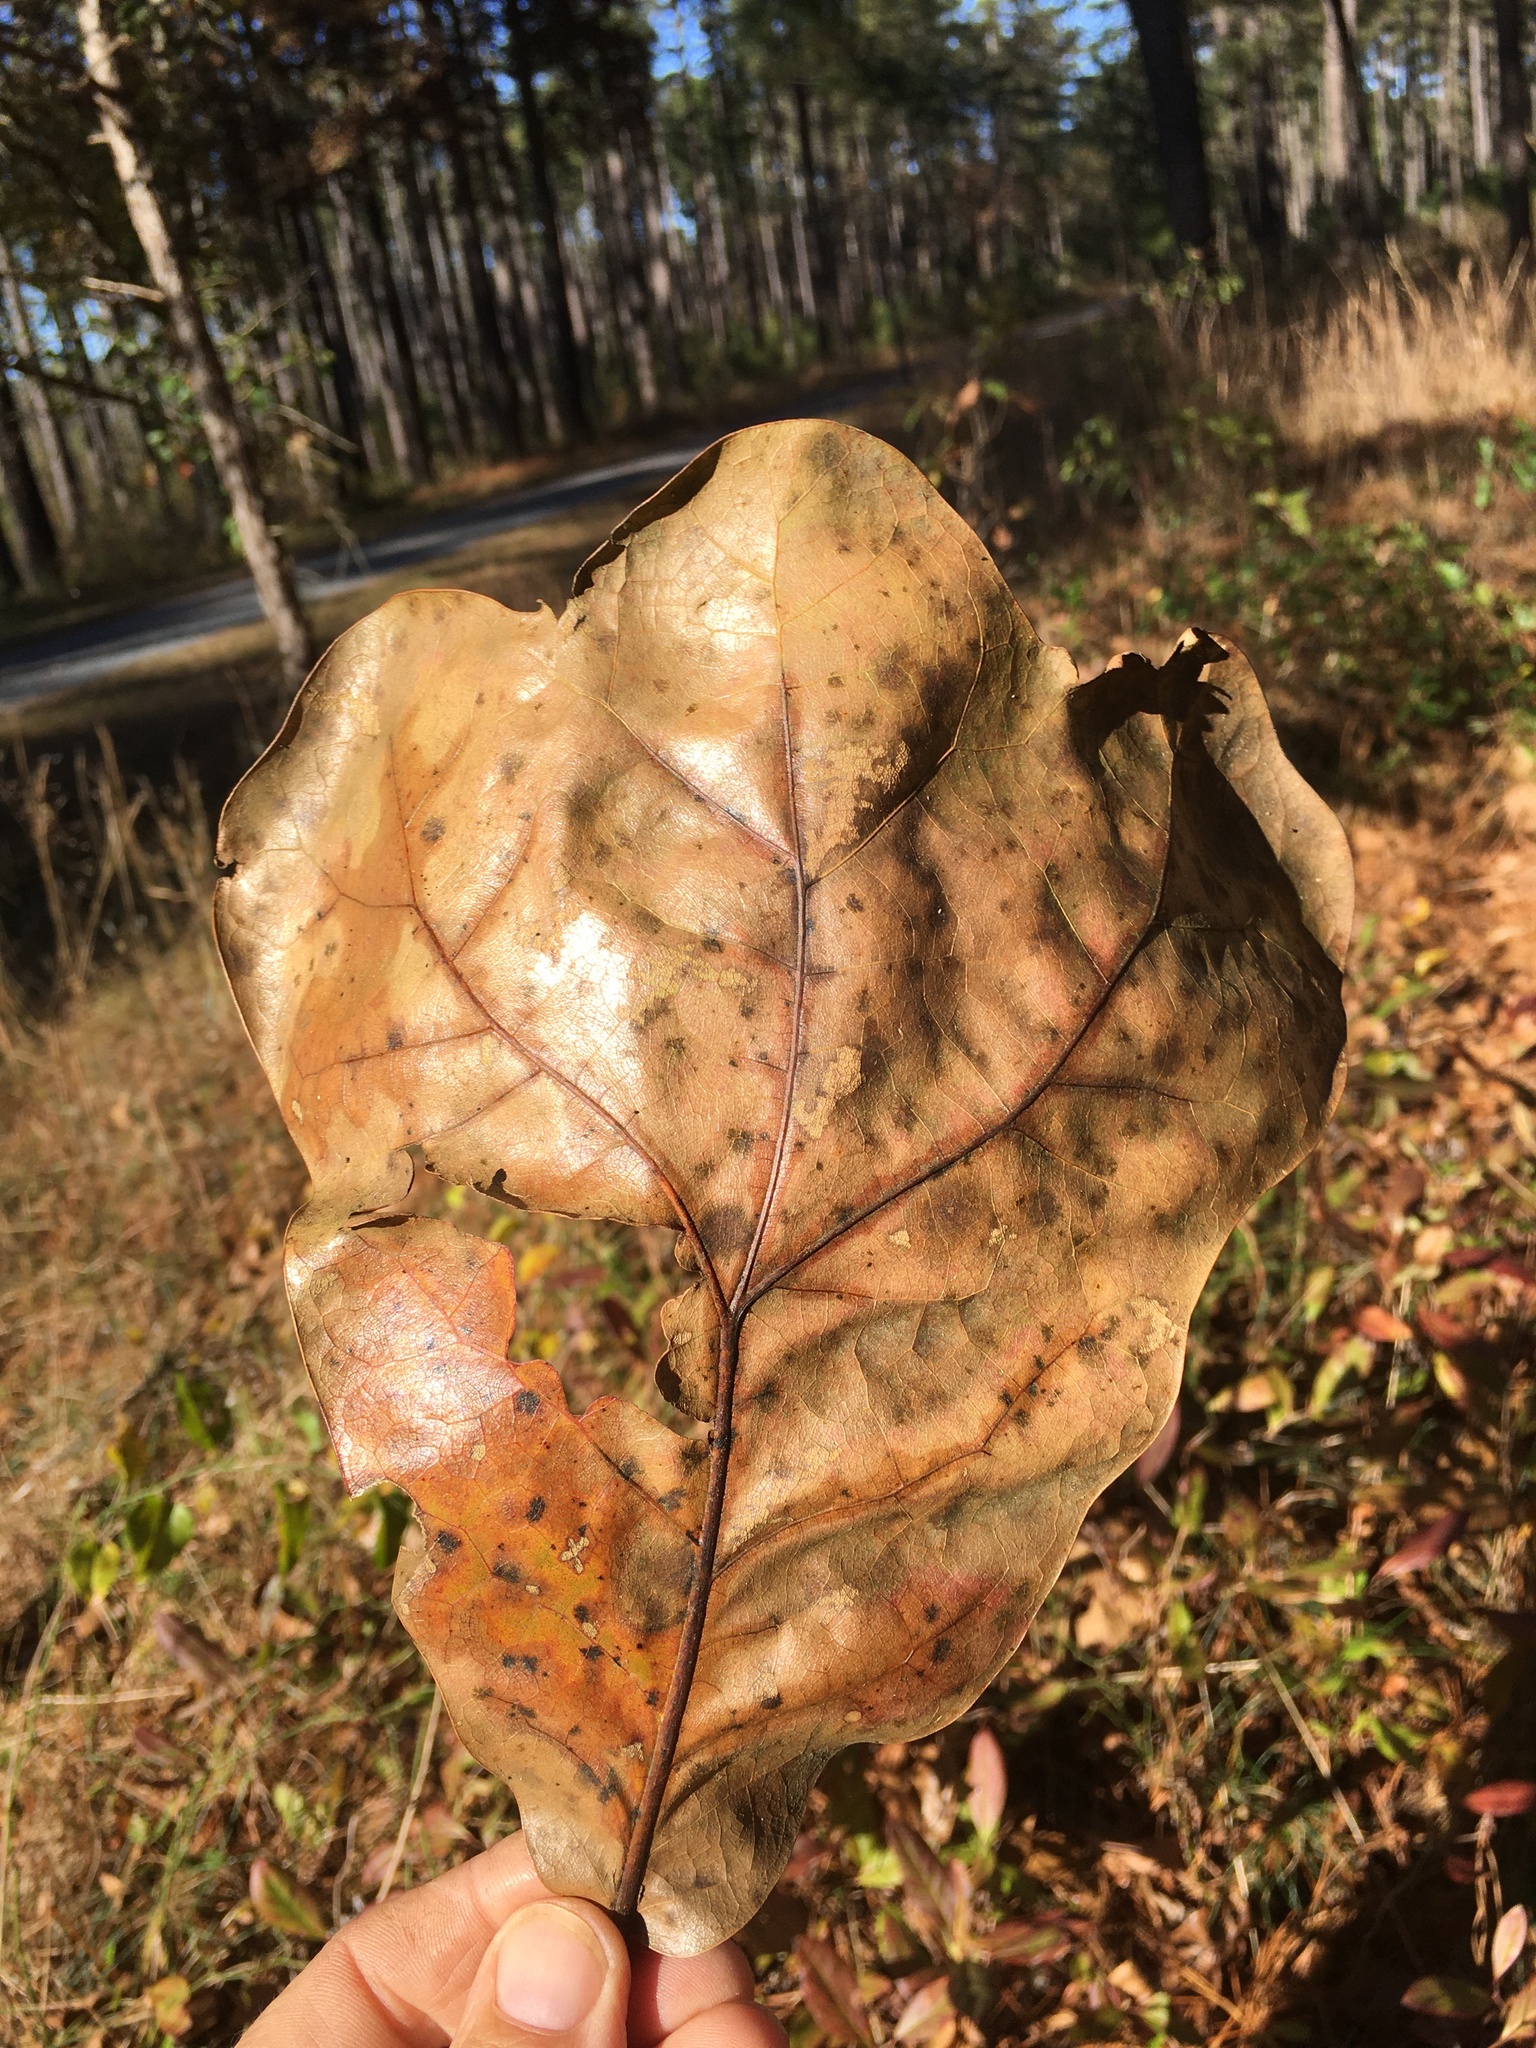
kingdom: Plantae
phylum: Tracheophyta
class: Magnoliopsida
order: Fagales
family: Fagaceae
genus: Quercus
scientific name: Quercus marilandica
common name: Blackjack oak
